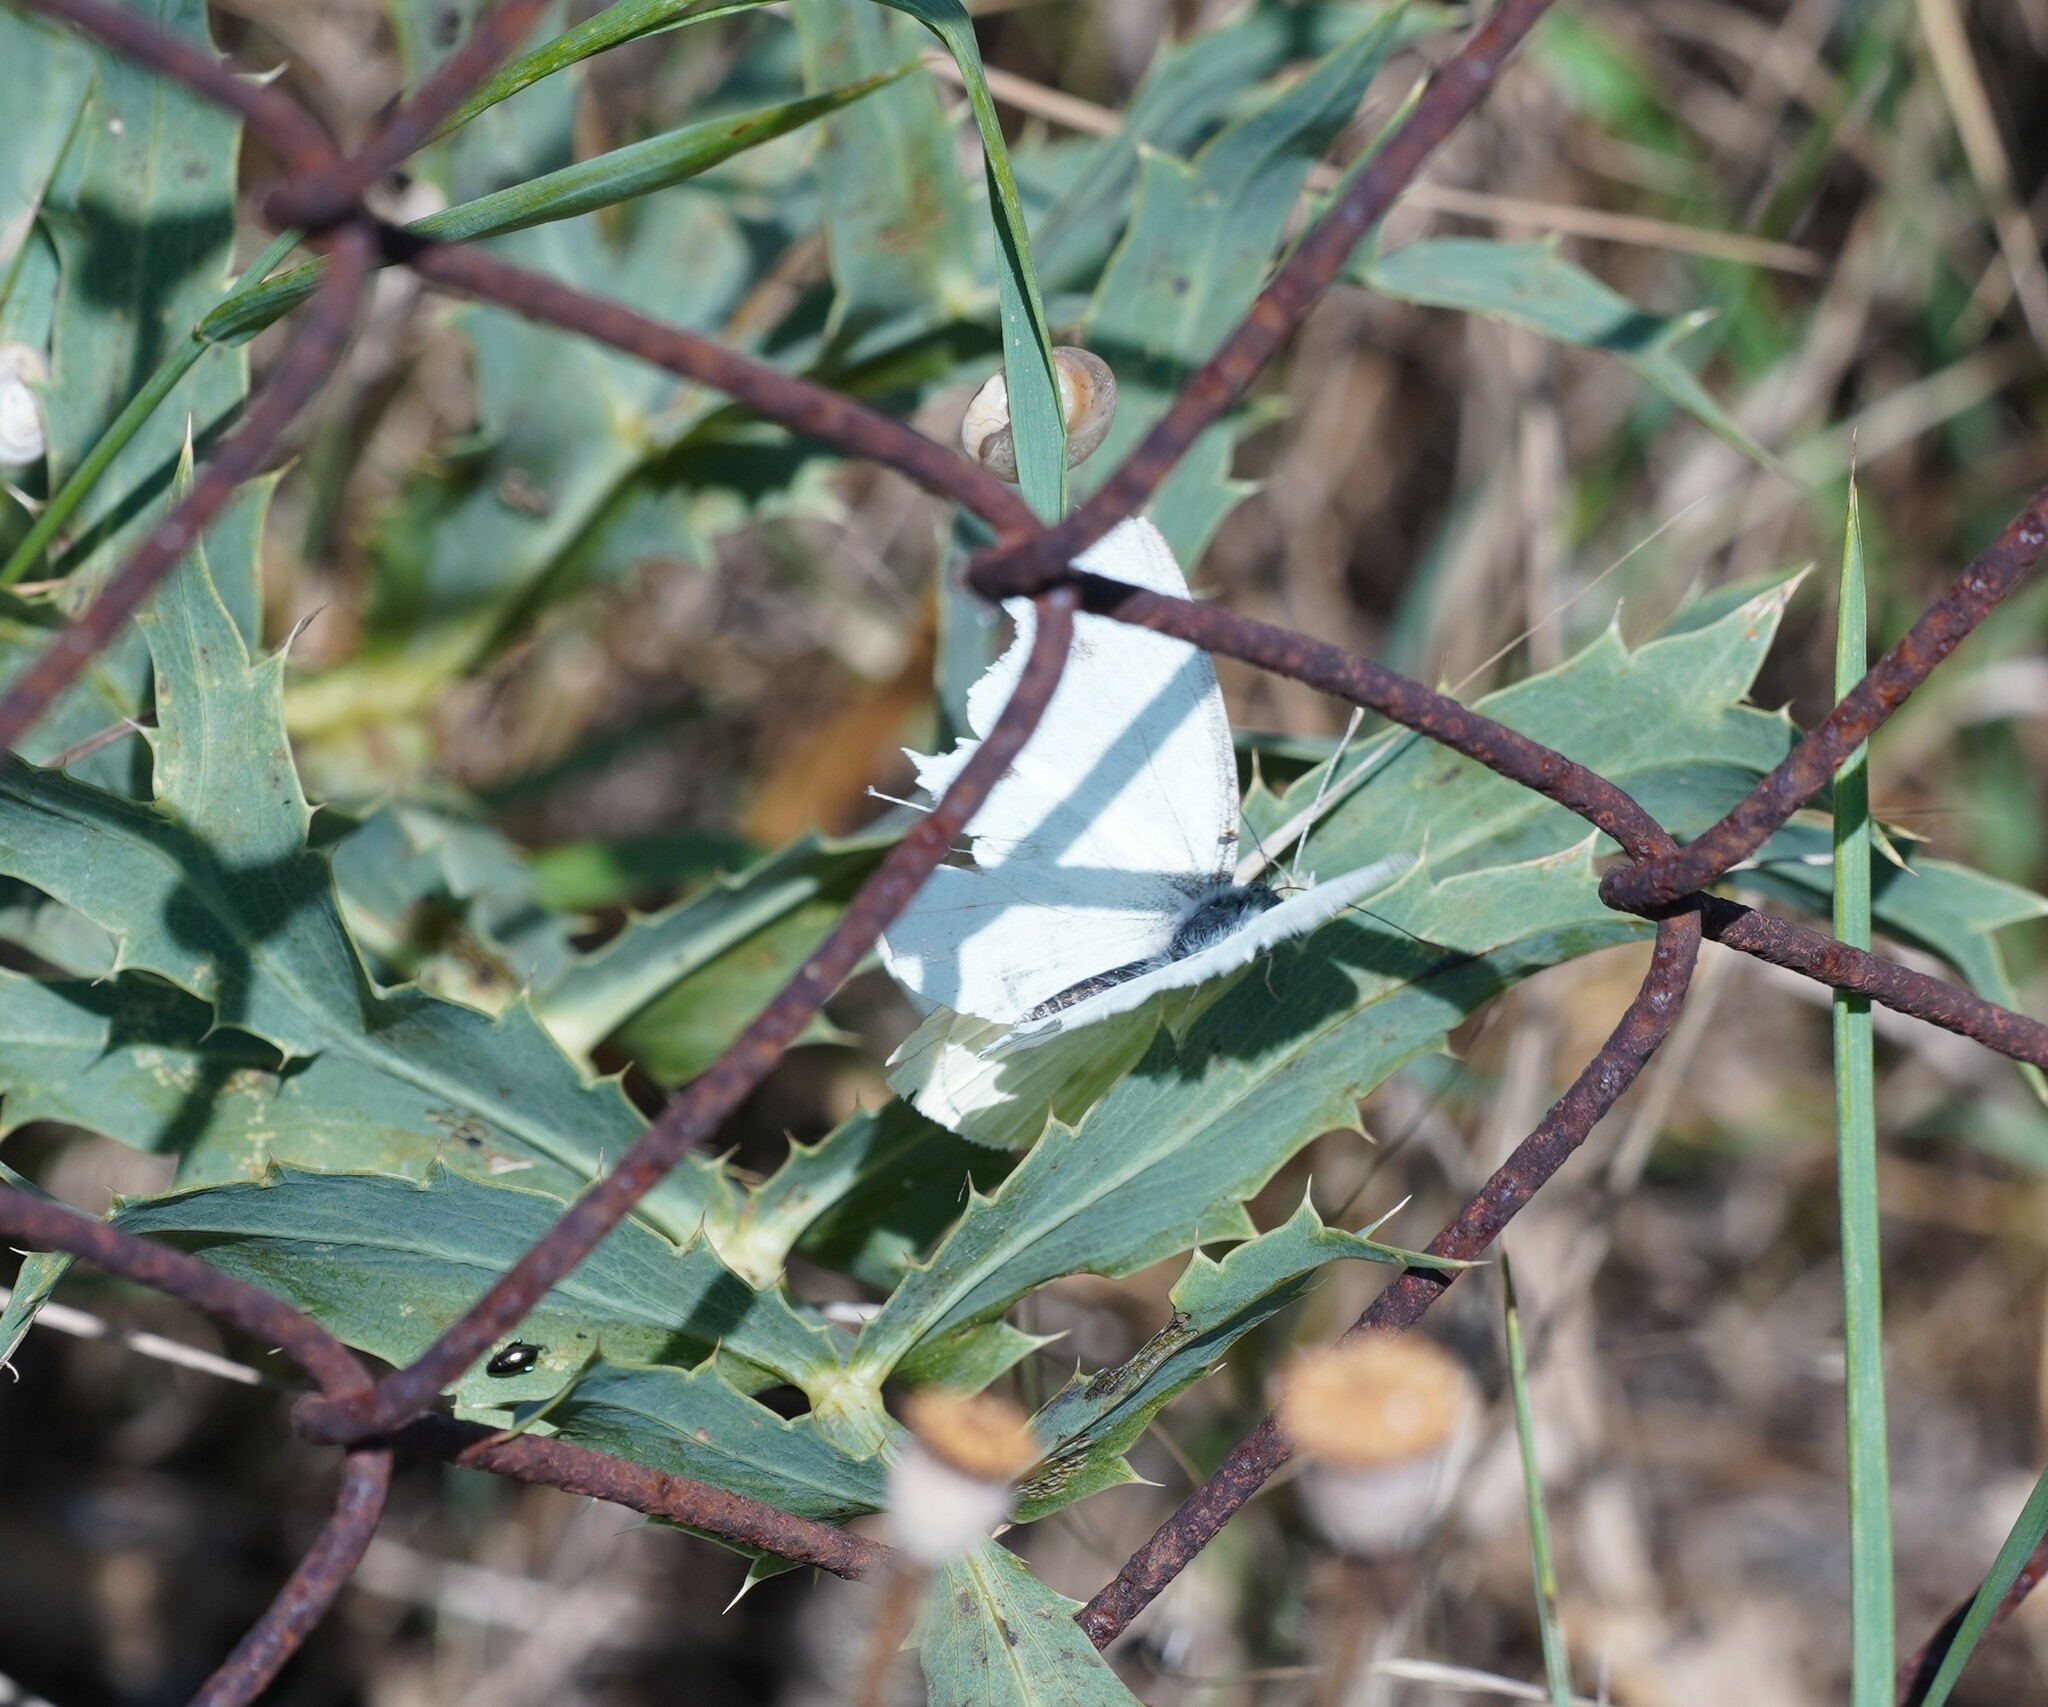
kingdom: Animalia
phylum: Arthropoda
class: Insecta
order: Lepidoptera
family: Pieridae
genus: Pieris
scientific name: Pieris rapae
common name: Small white
